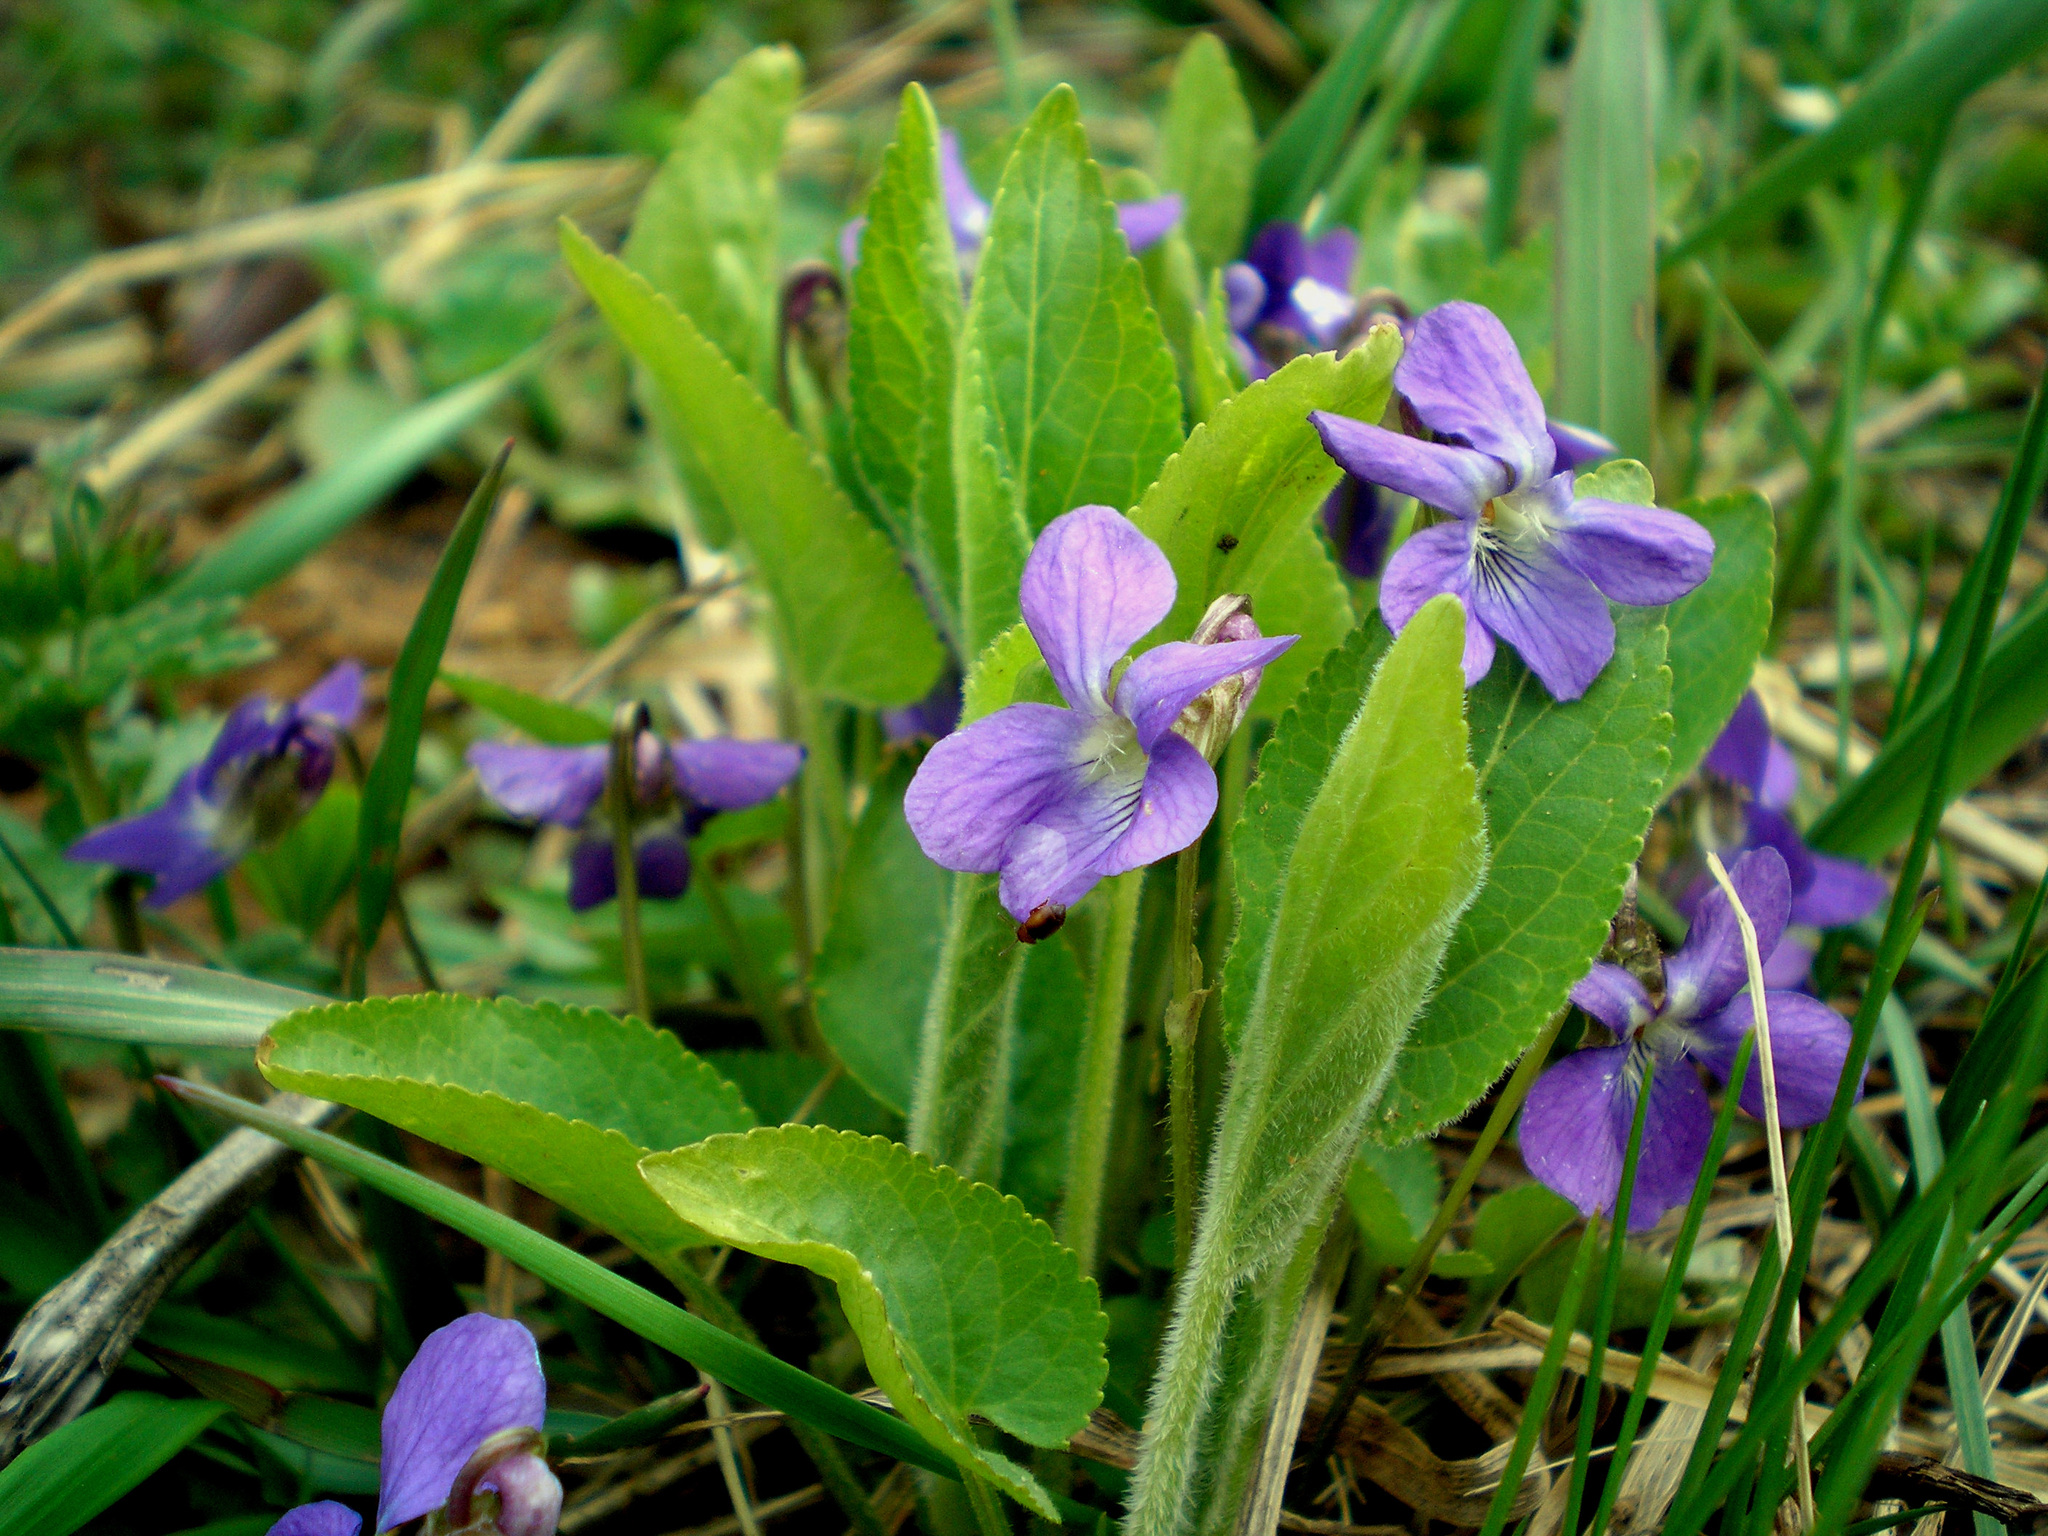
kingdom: Plantae
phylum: Tracheophyta
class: Magnoliopsida
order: Malpighiales
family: Violaceae
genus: Viola
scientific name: Viola hirta
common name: Hairy violet
